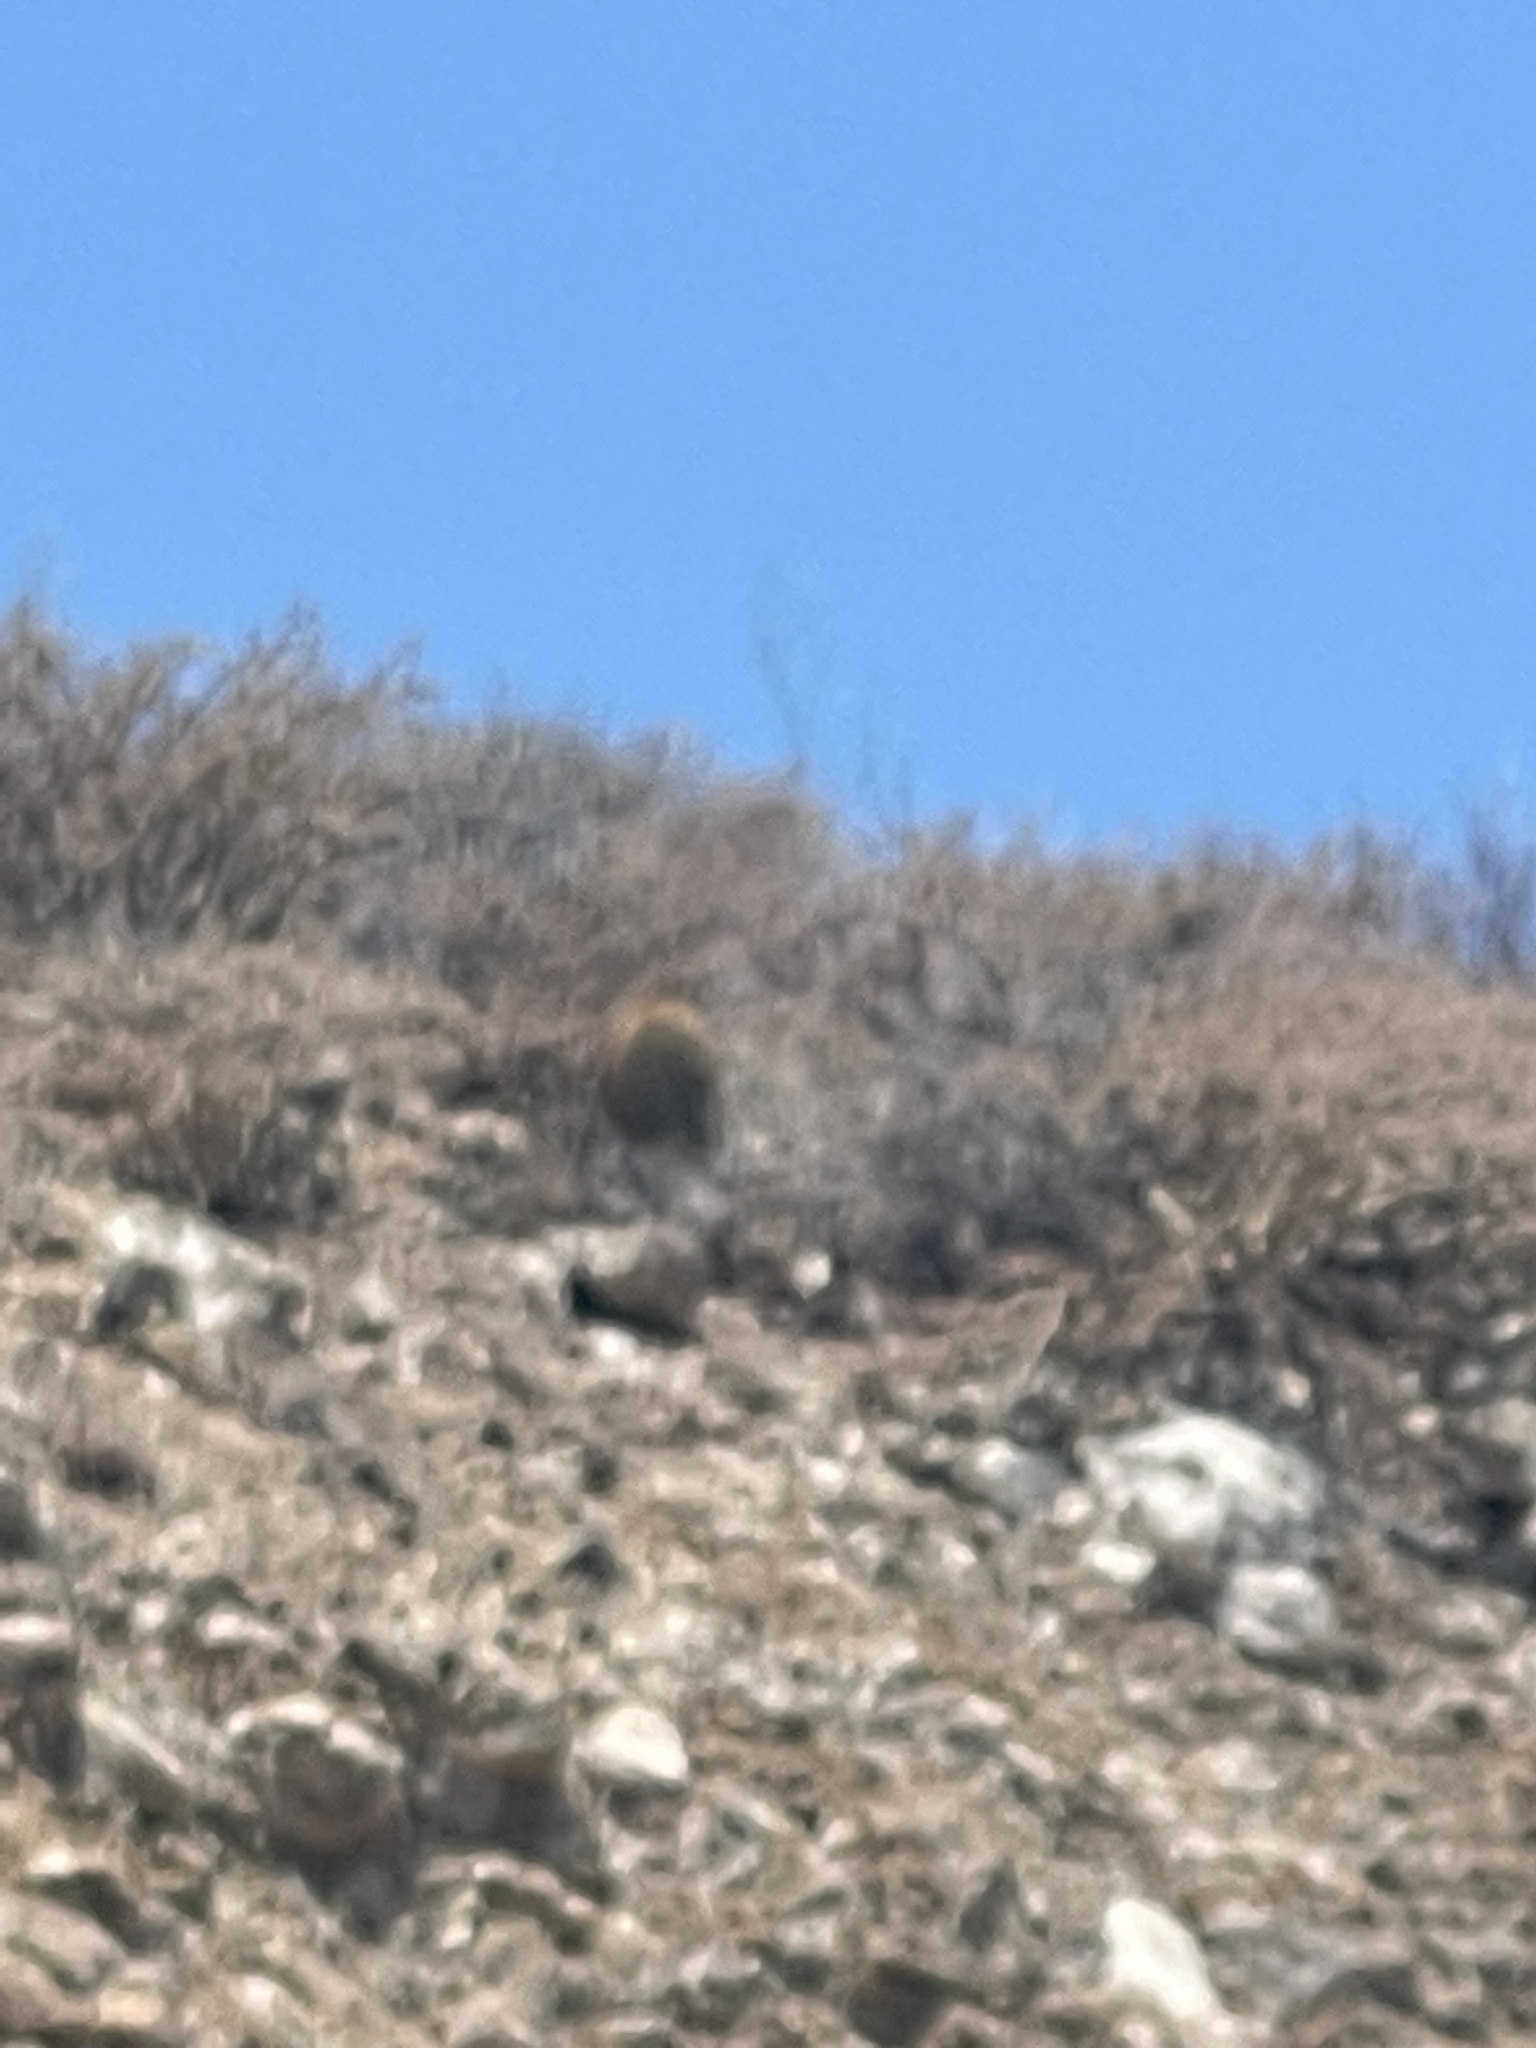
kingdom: Plantae
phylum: Tracheophyta
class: Magnoliopsida
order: Caryophyllales
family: Cactaceae
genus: Ferocactus
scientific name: Ferocactus diguetii
